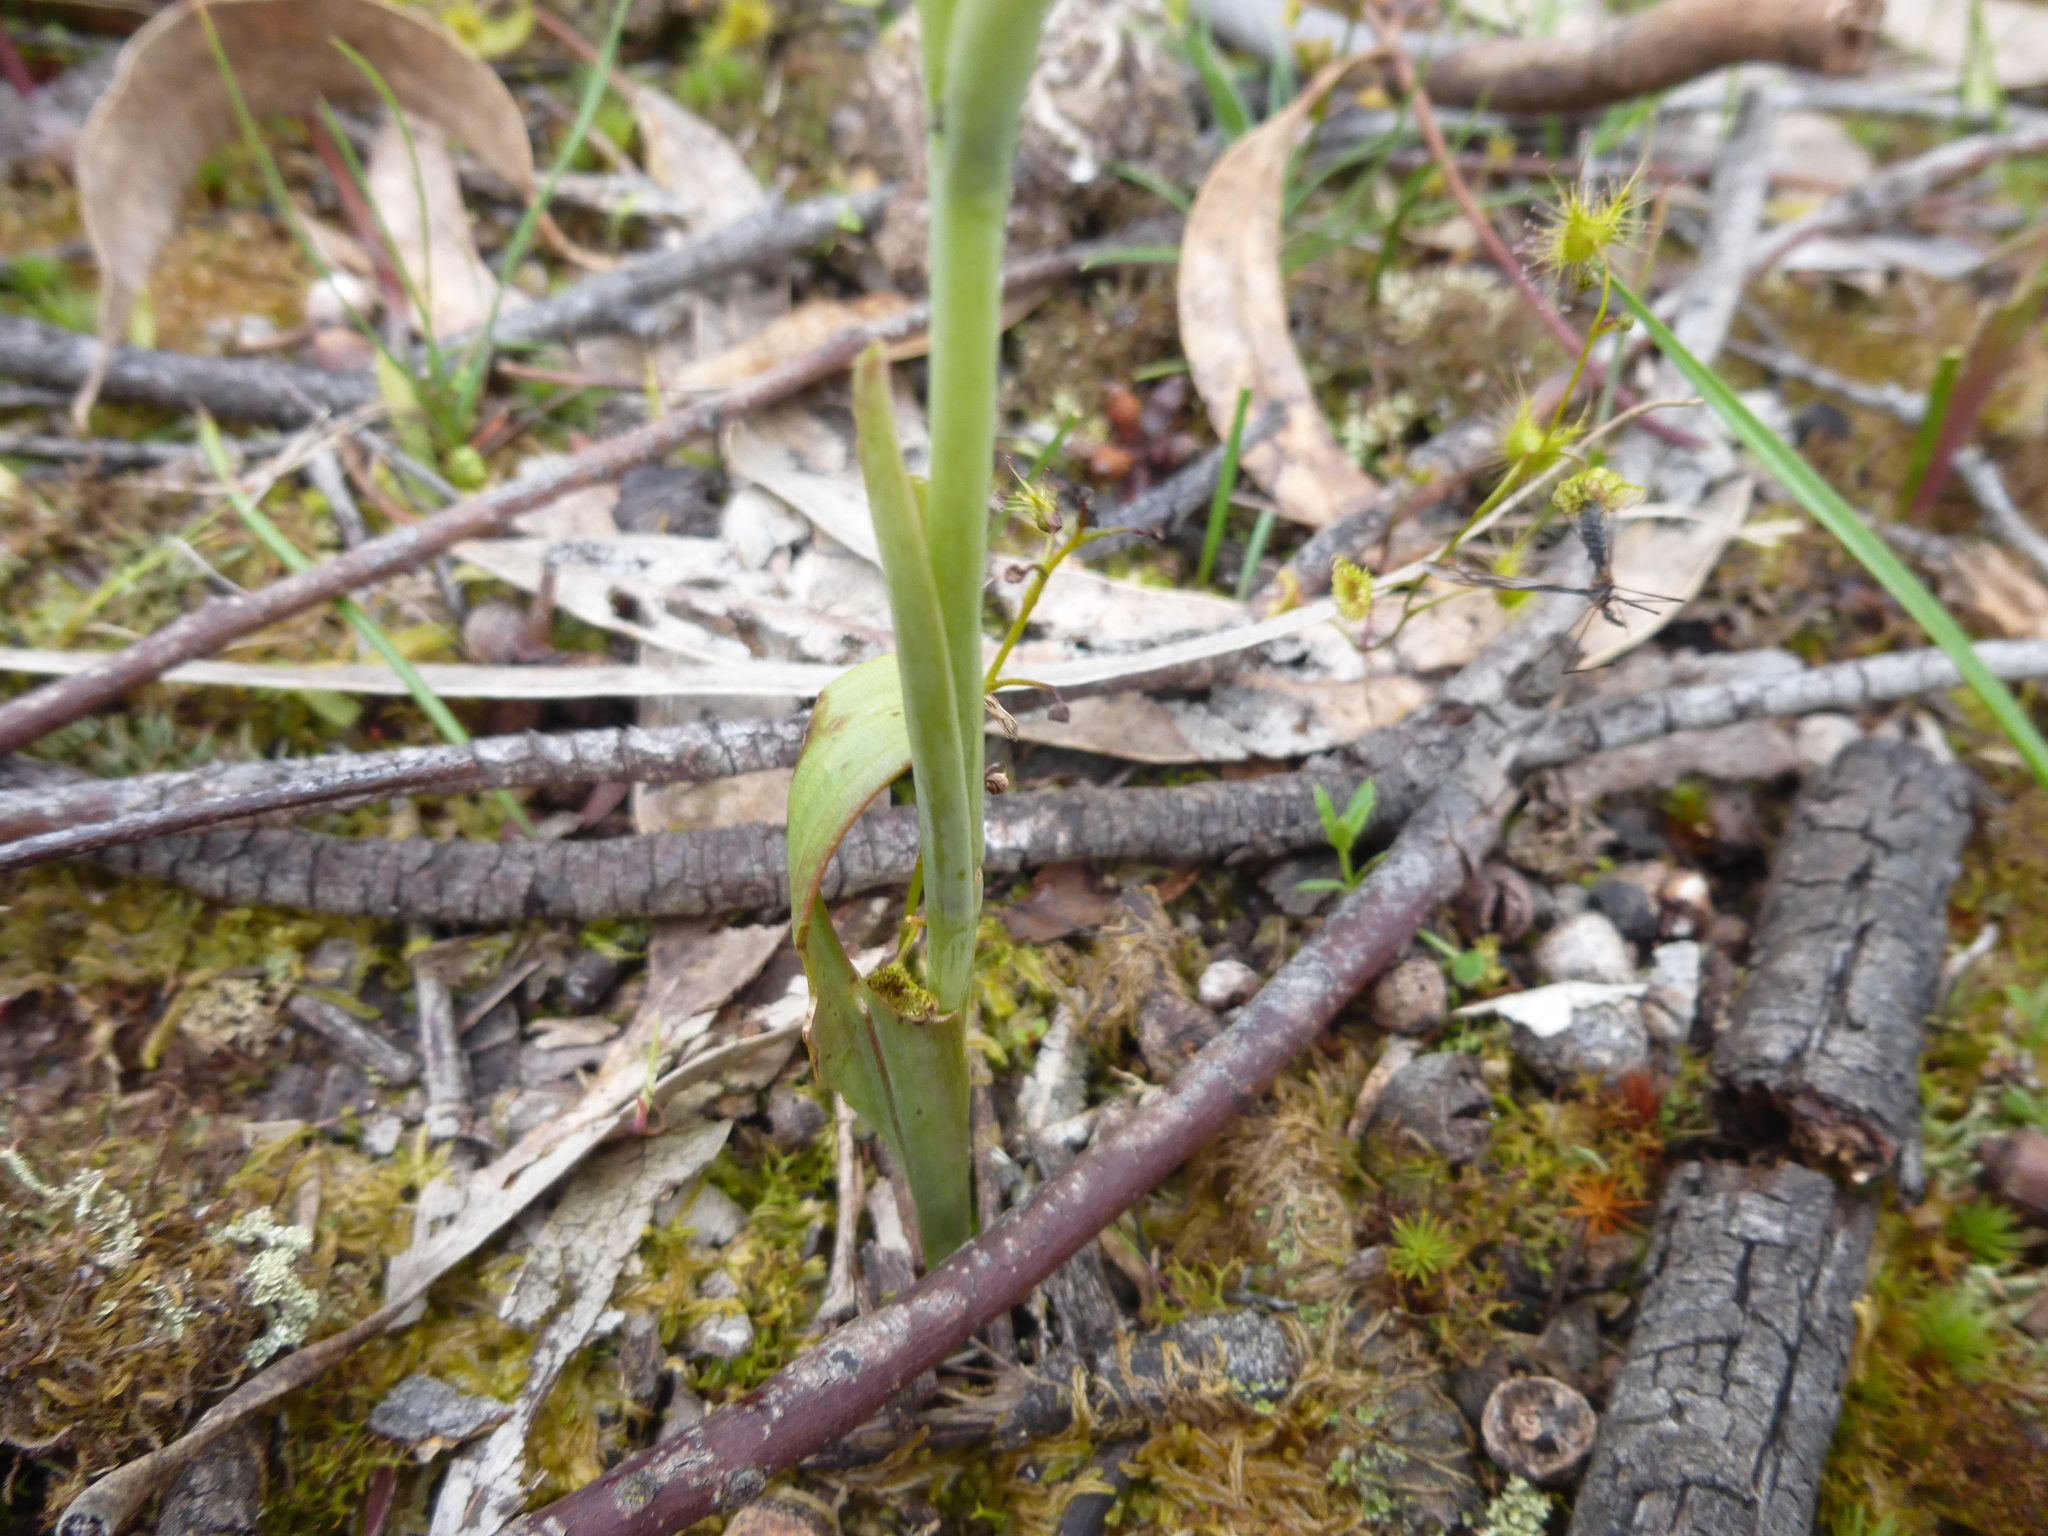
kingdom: Plantae
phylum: Tracheophyta
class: Liliopsida
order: Asparagales
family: Orchidaceae
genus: Calochilus
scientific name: Calochilus robertsonii
